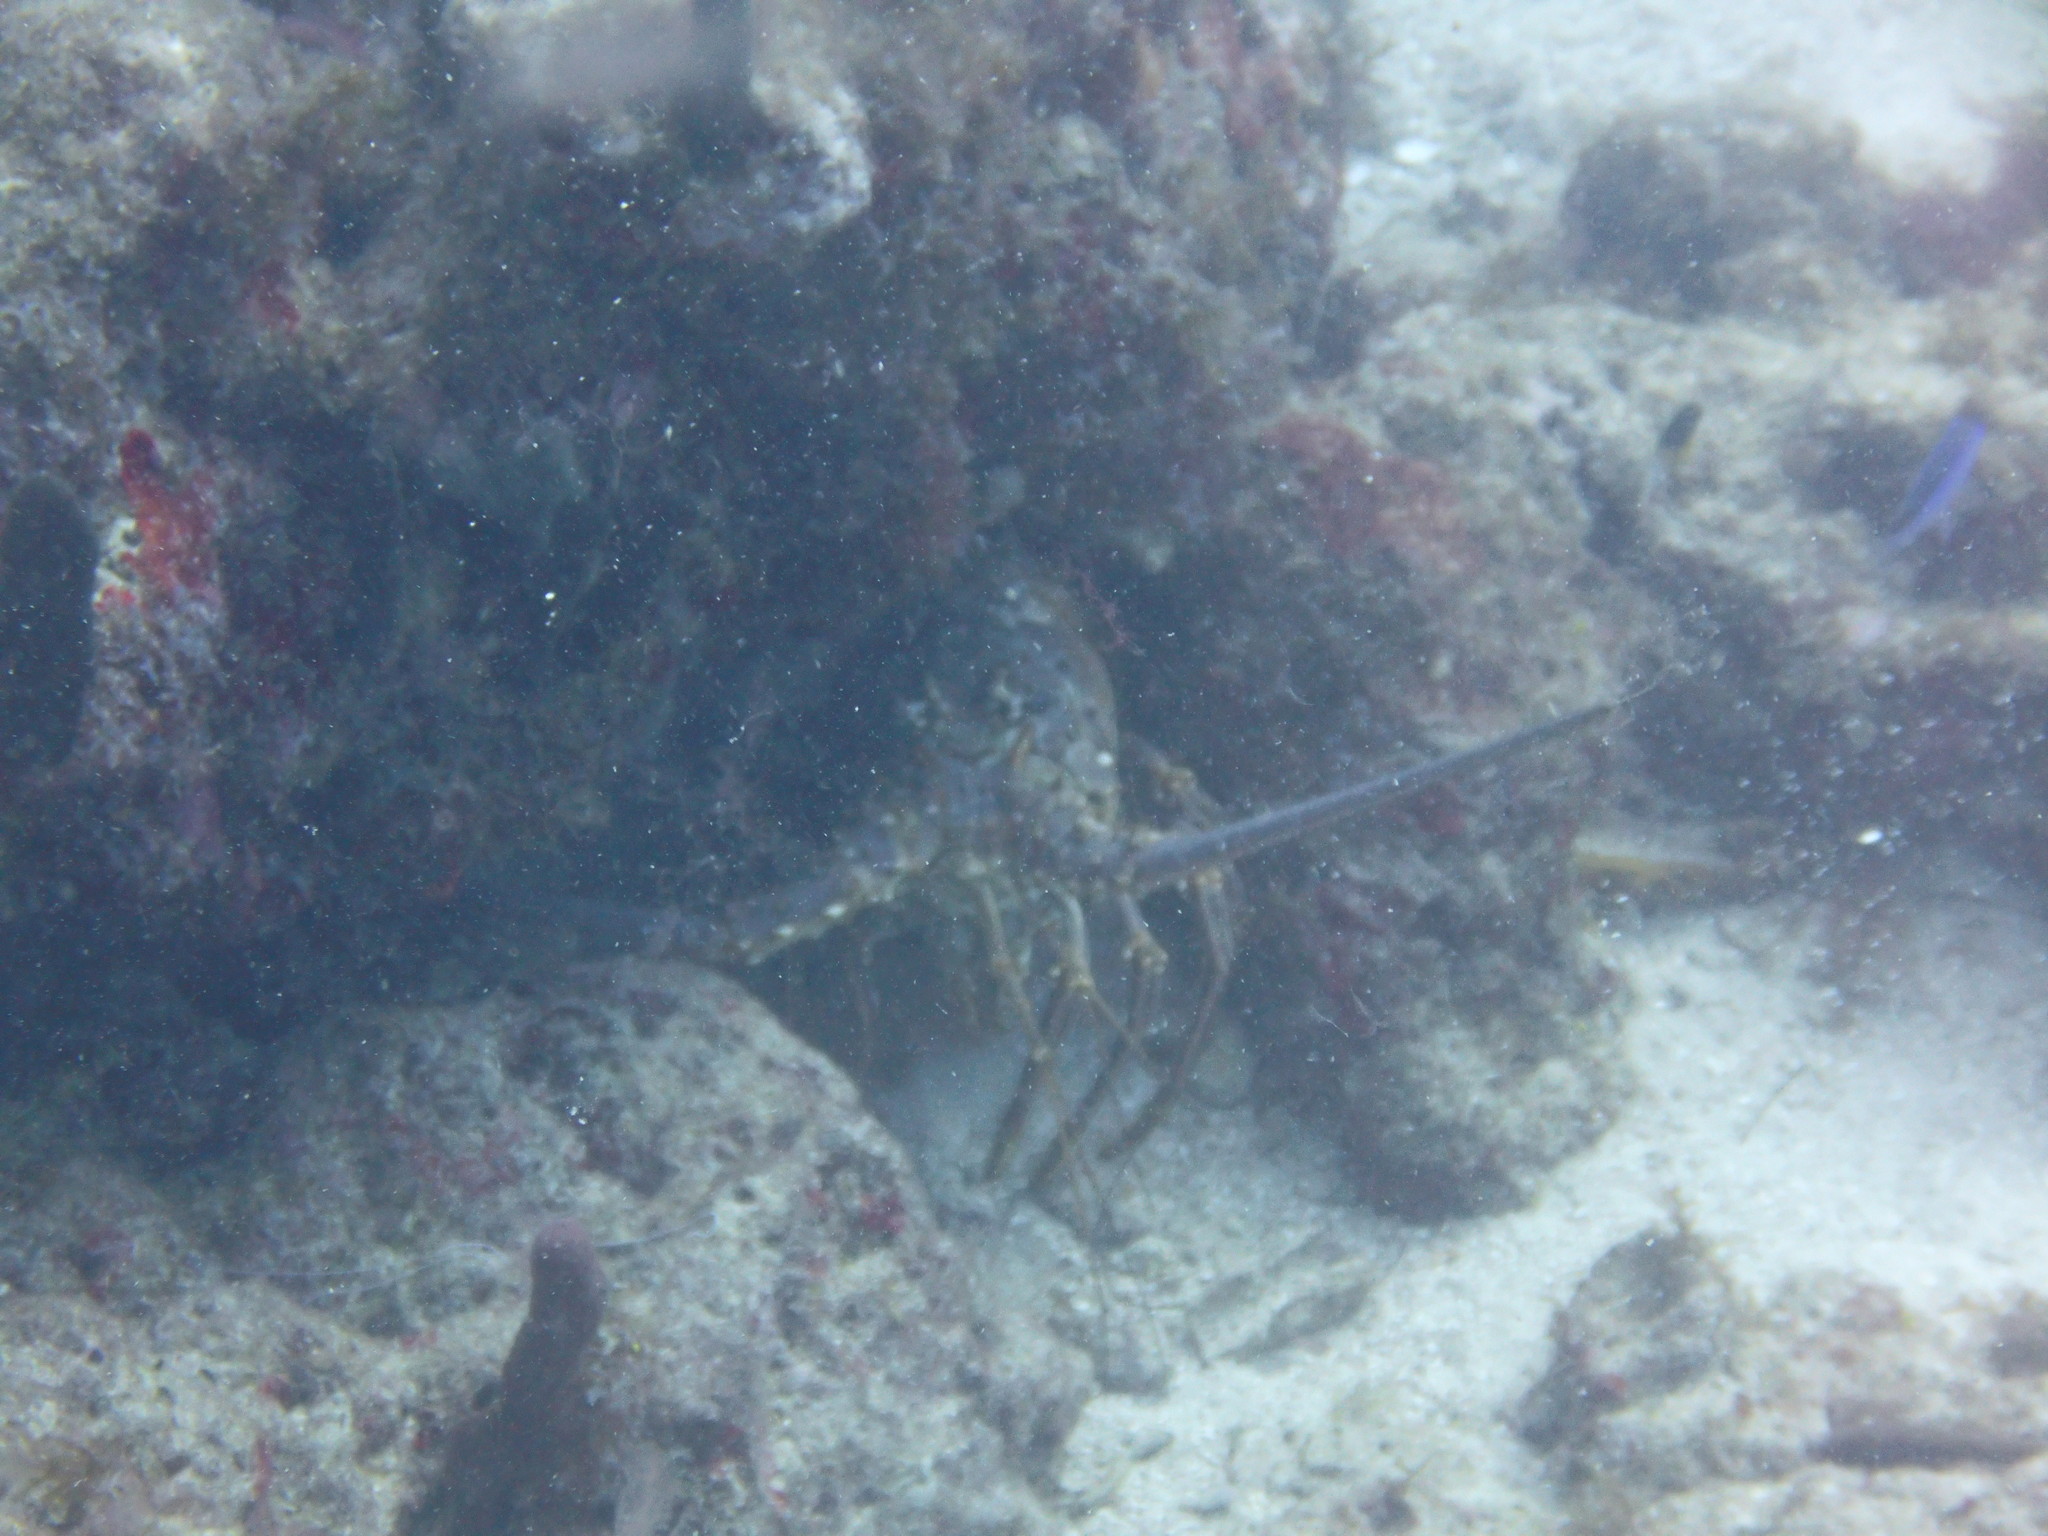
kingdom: Animalia
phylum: Arthropoda
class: Malacostraca
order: Decapoda
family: Palinuridae
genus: Panulirus
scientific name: Panulirus argus
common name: Caribbean spiny lobster
